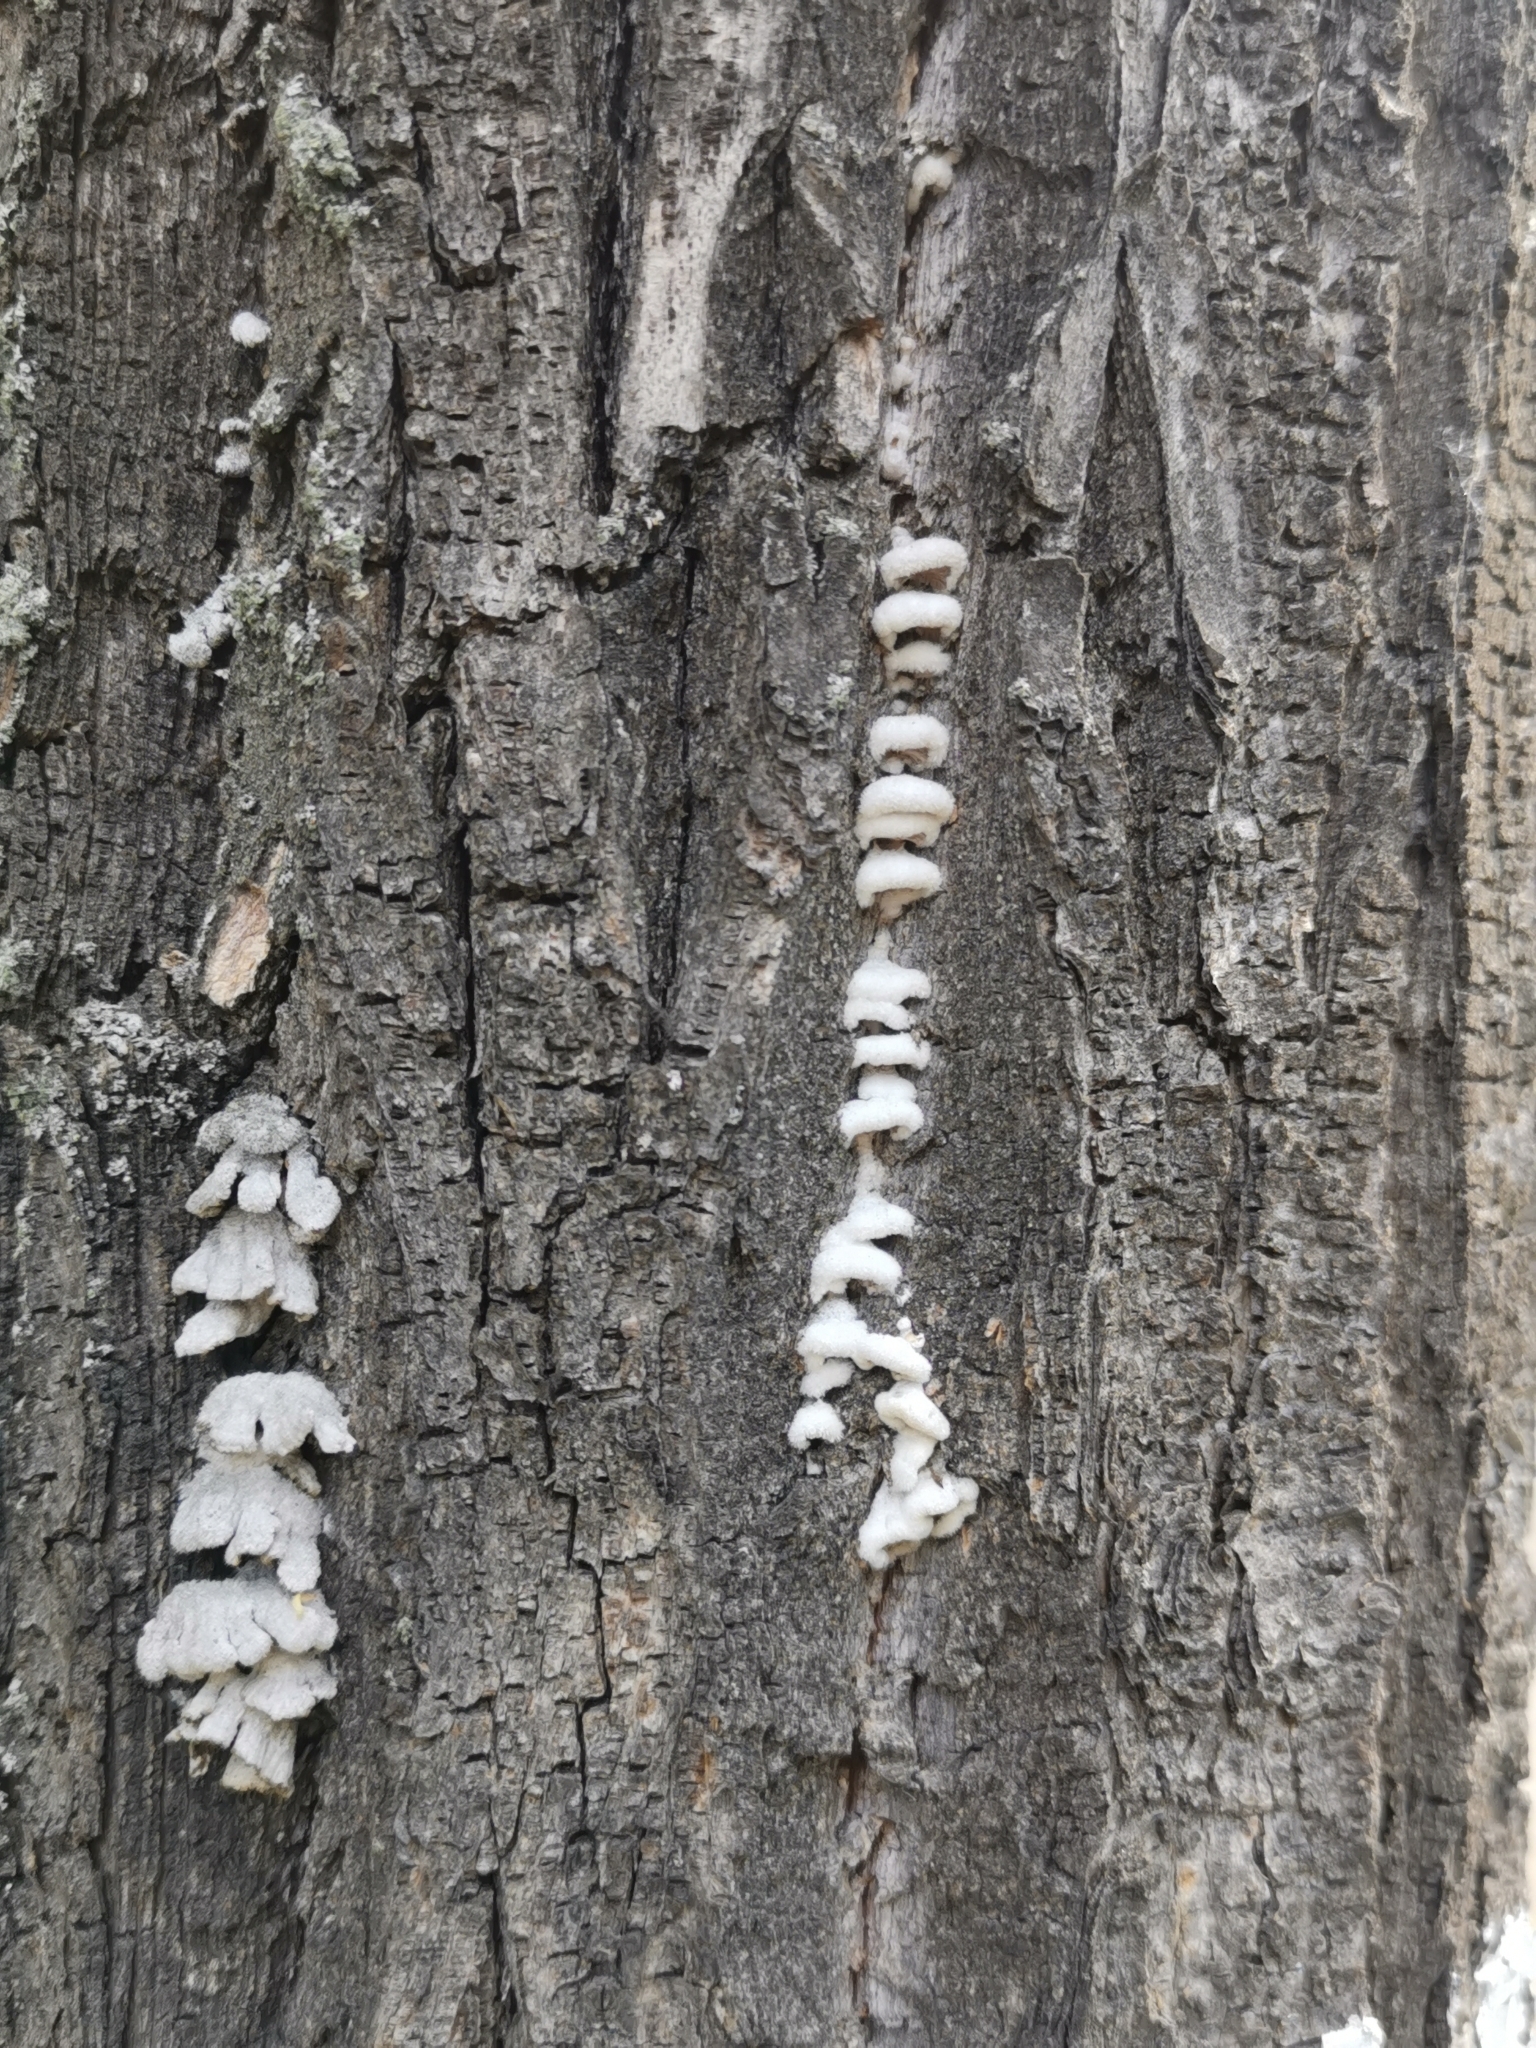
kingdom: Fungi
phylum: Basidiomycota
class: Agaricomycetes
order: Agaricales
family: Schizophyllaceae
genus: Schizophyllum
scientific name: Schizophyllum commune
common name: Common porecrust
